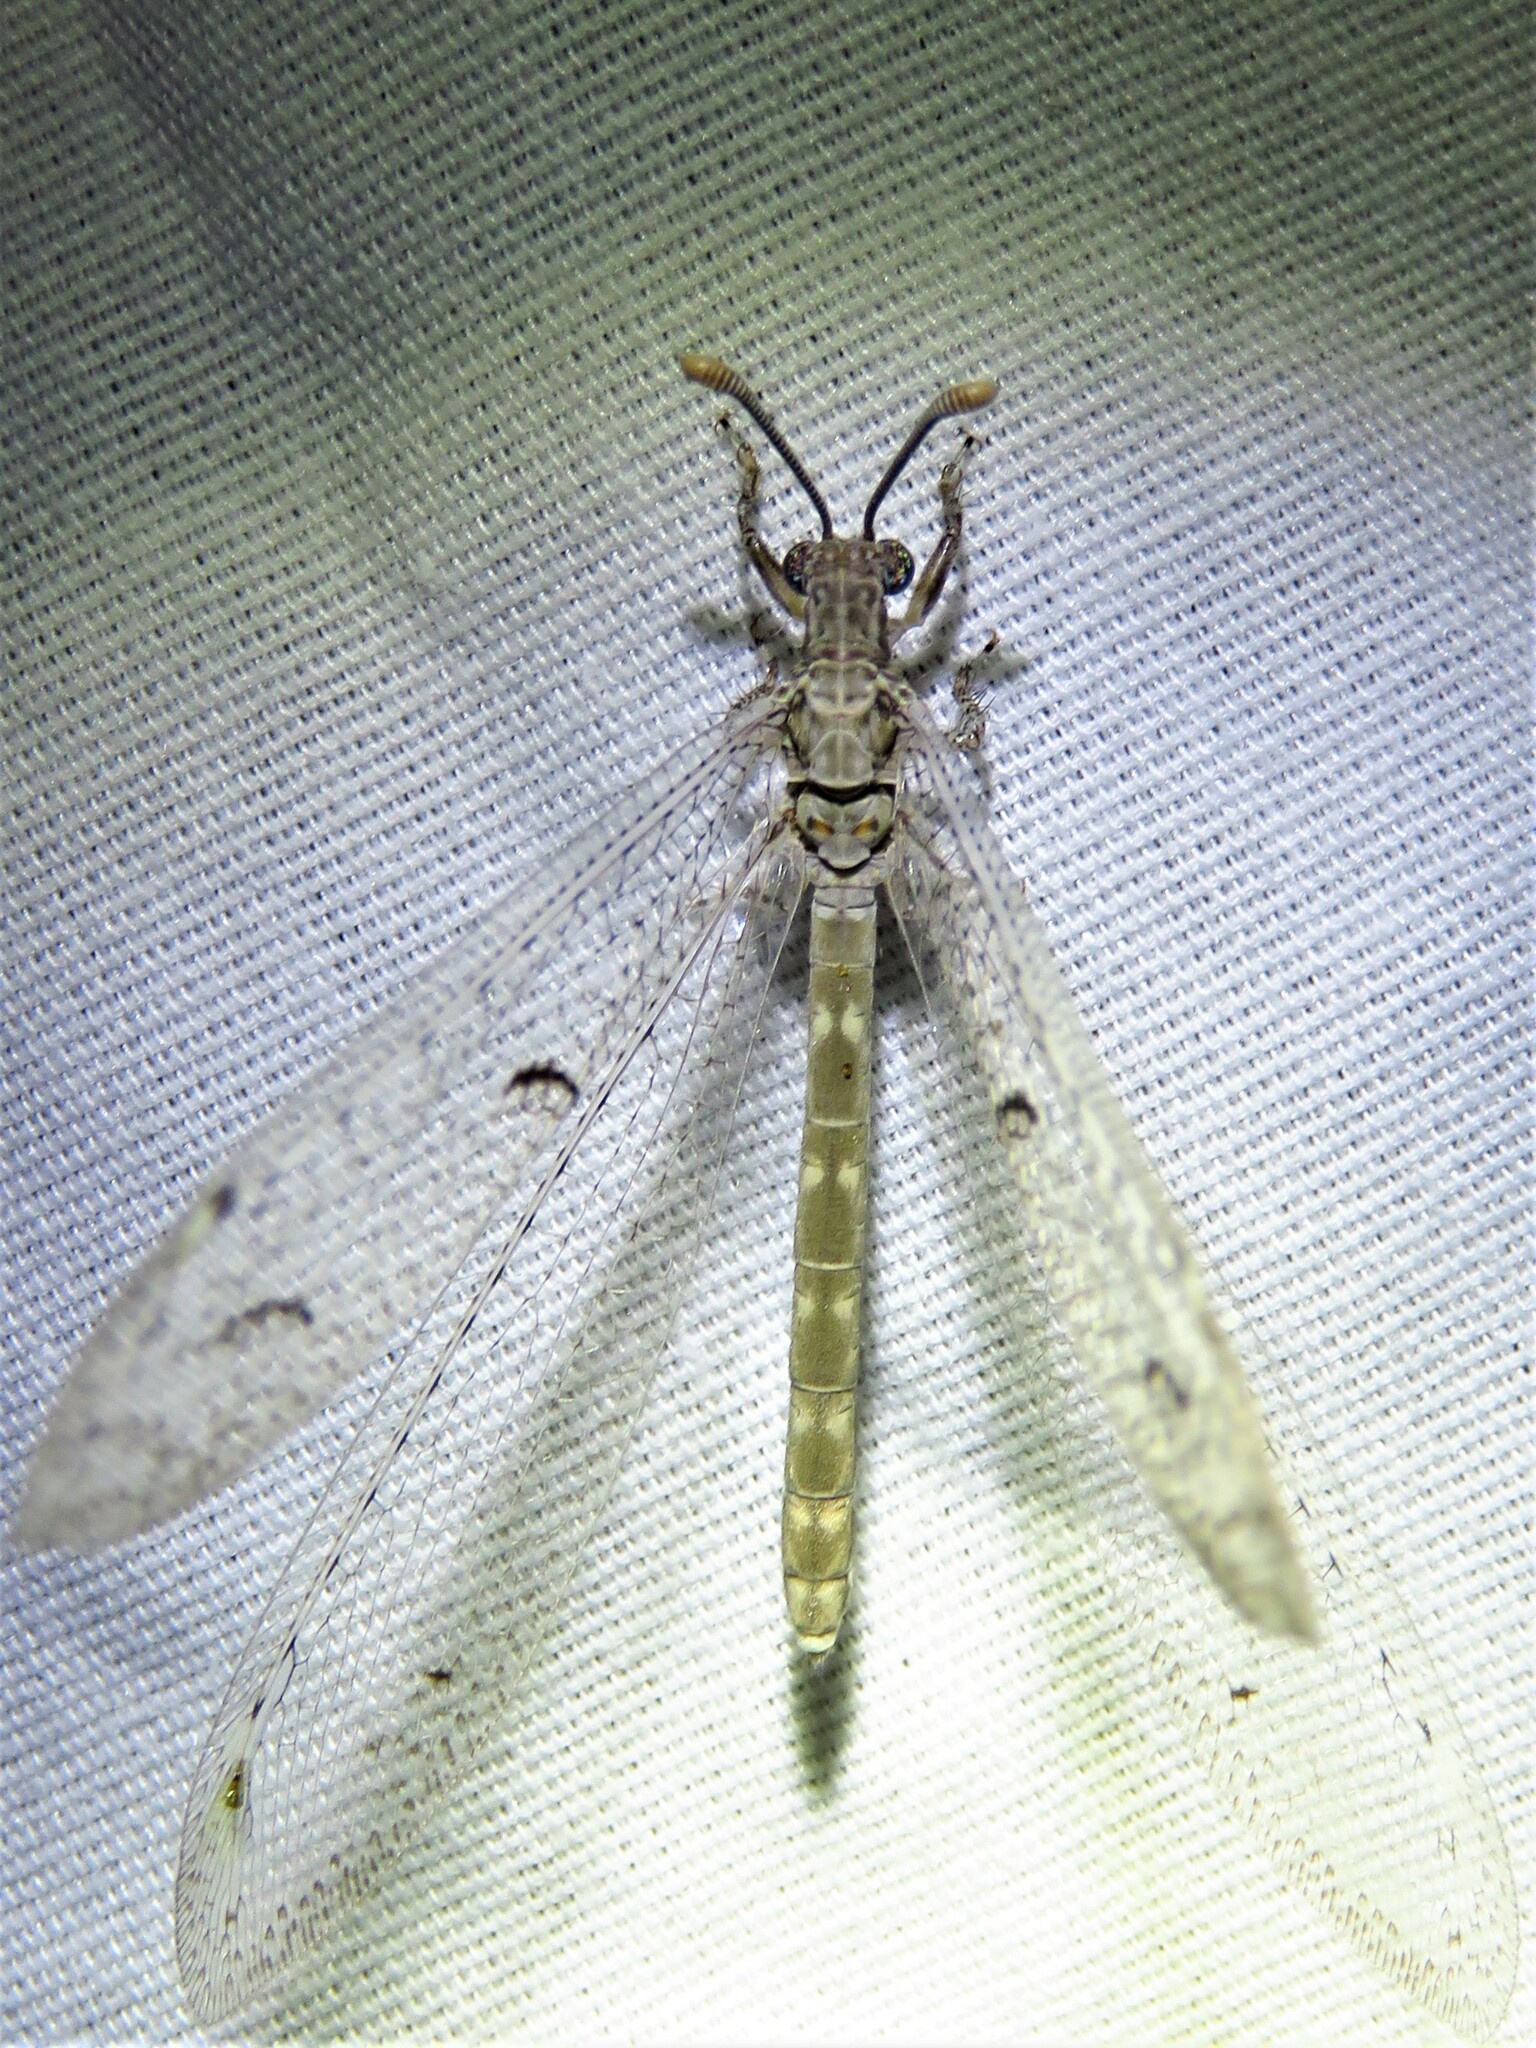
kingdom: Animalia
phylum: Arthropoda
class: Insecta
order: Neuroptera
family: Myrmeleontidae
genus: Euptilon
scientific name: Euptilon ornatum
